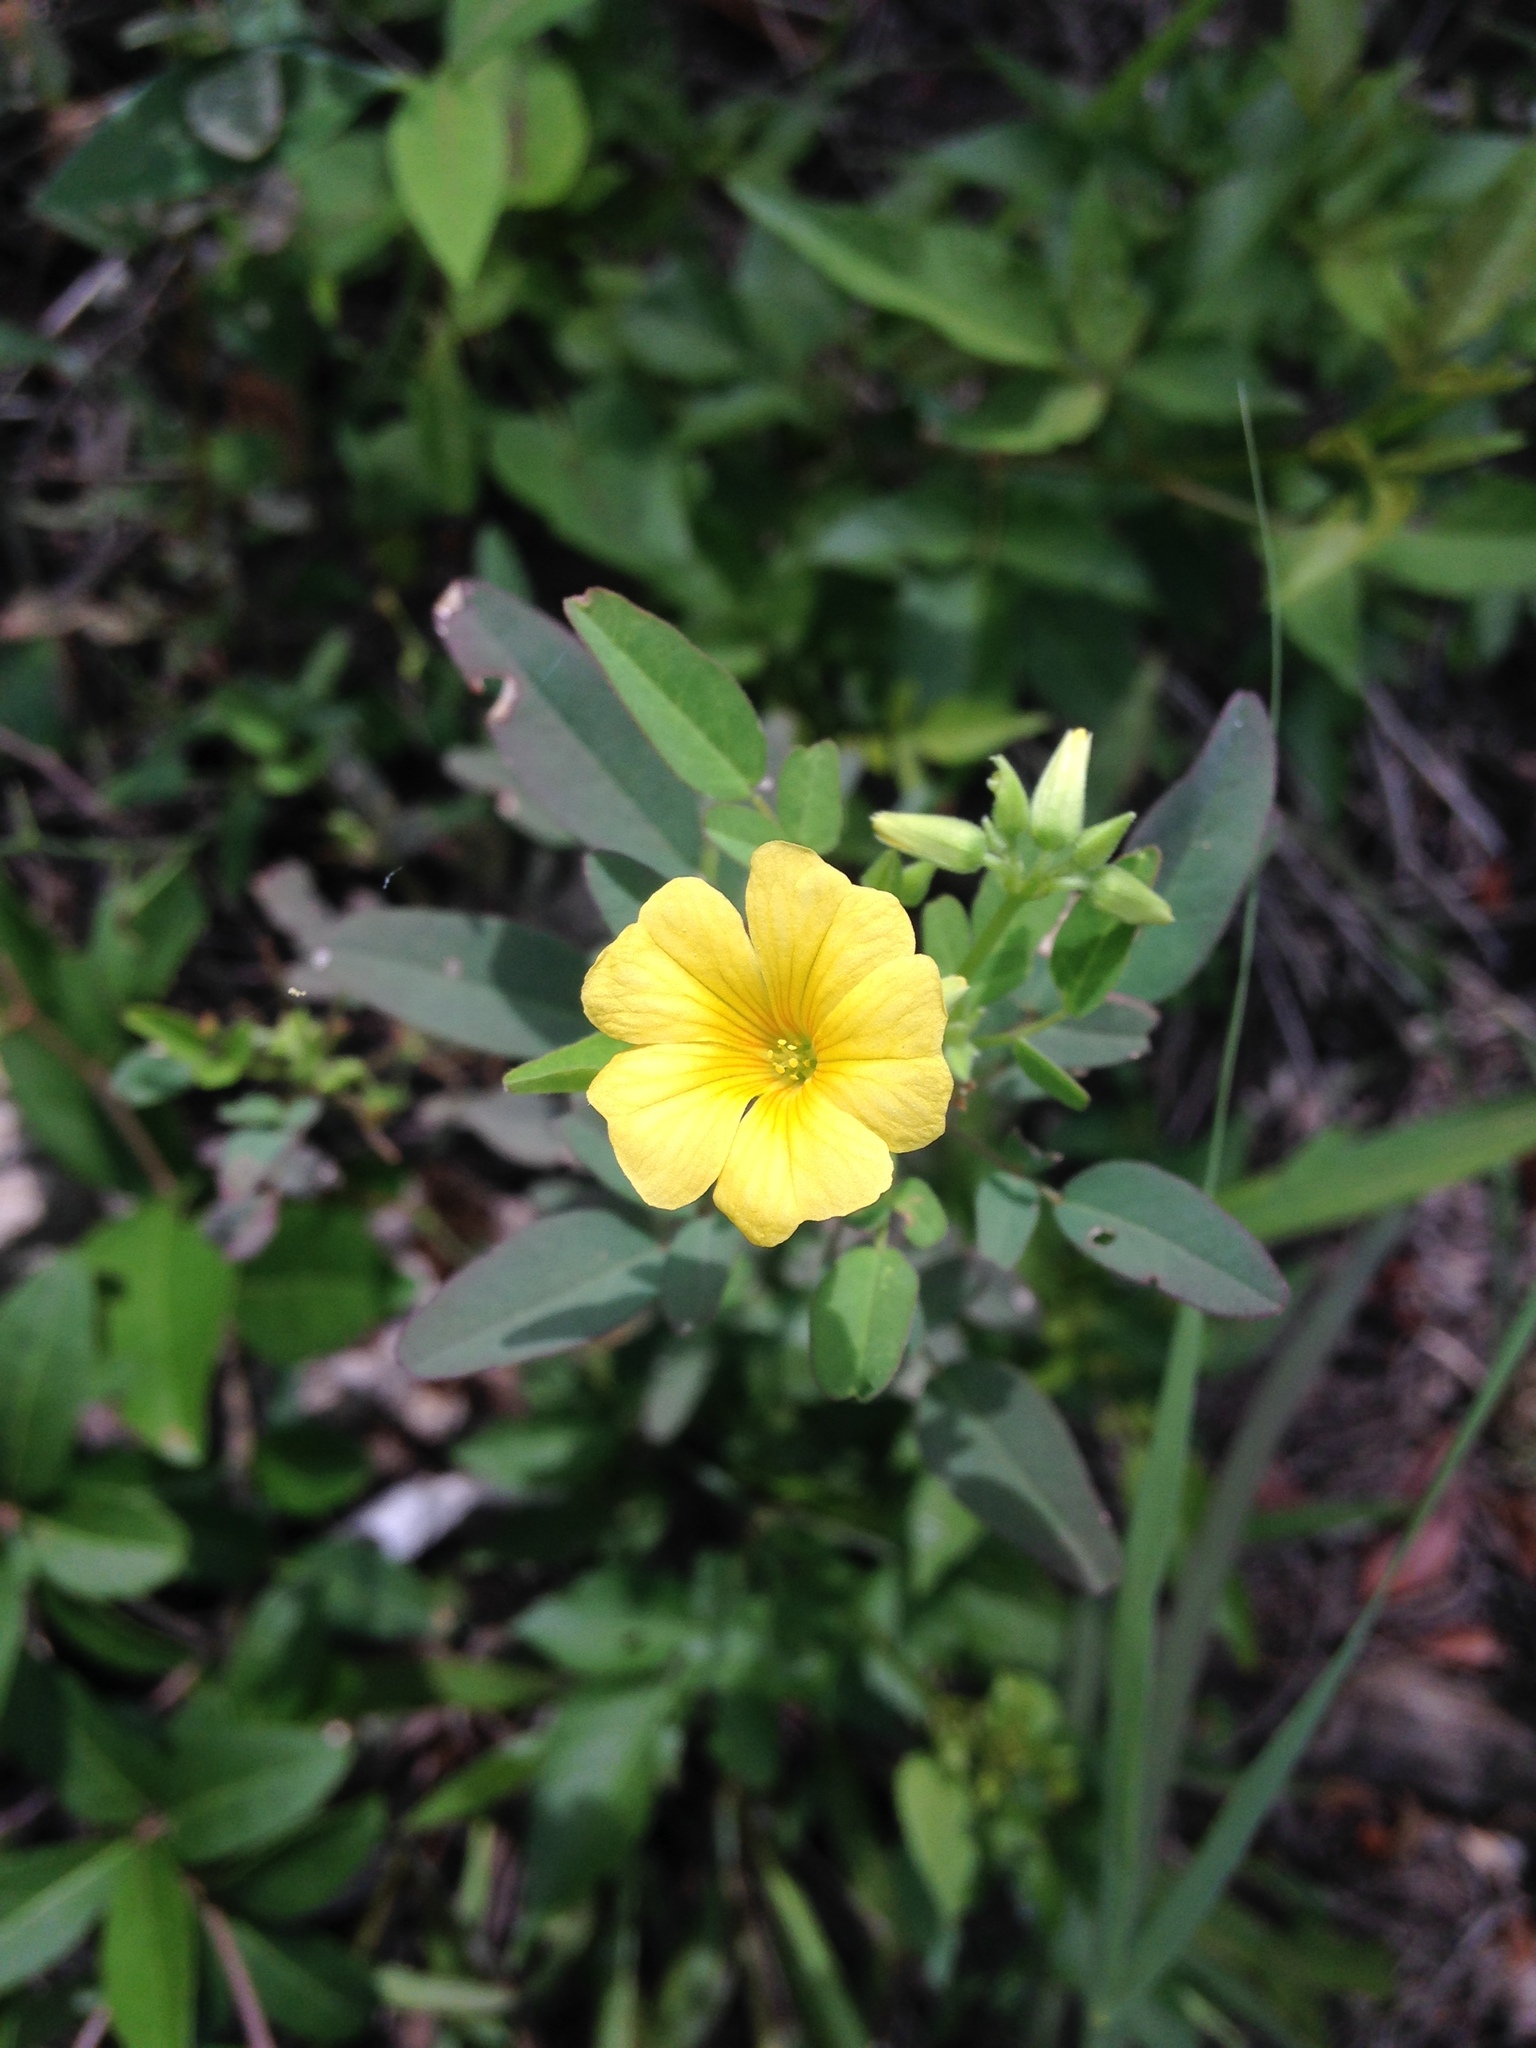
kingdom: Plantae
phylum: Tracheophyta
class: Magnoliopsida
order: Oxalidales
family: Oxalidaceae
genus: Oxalis
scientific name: Oxalis frutescens
